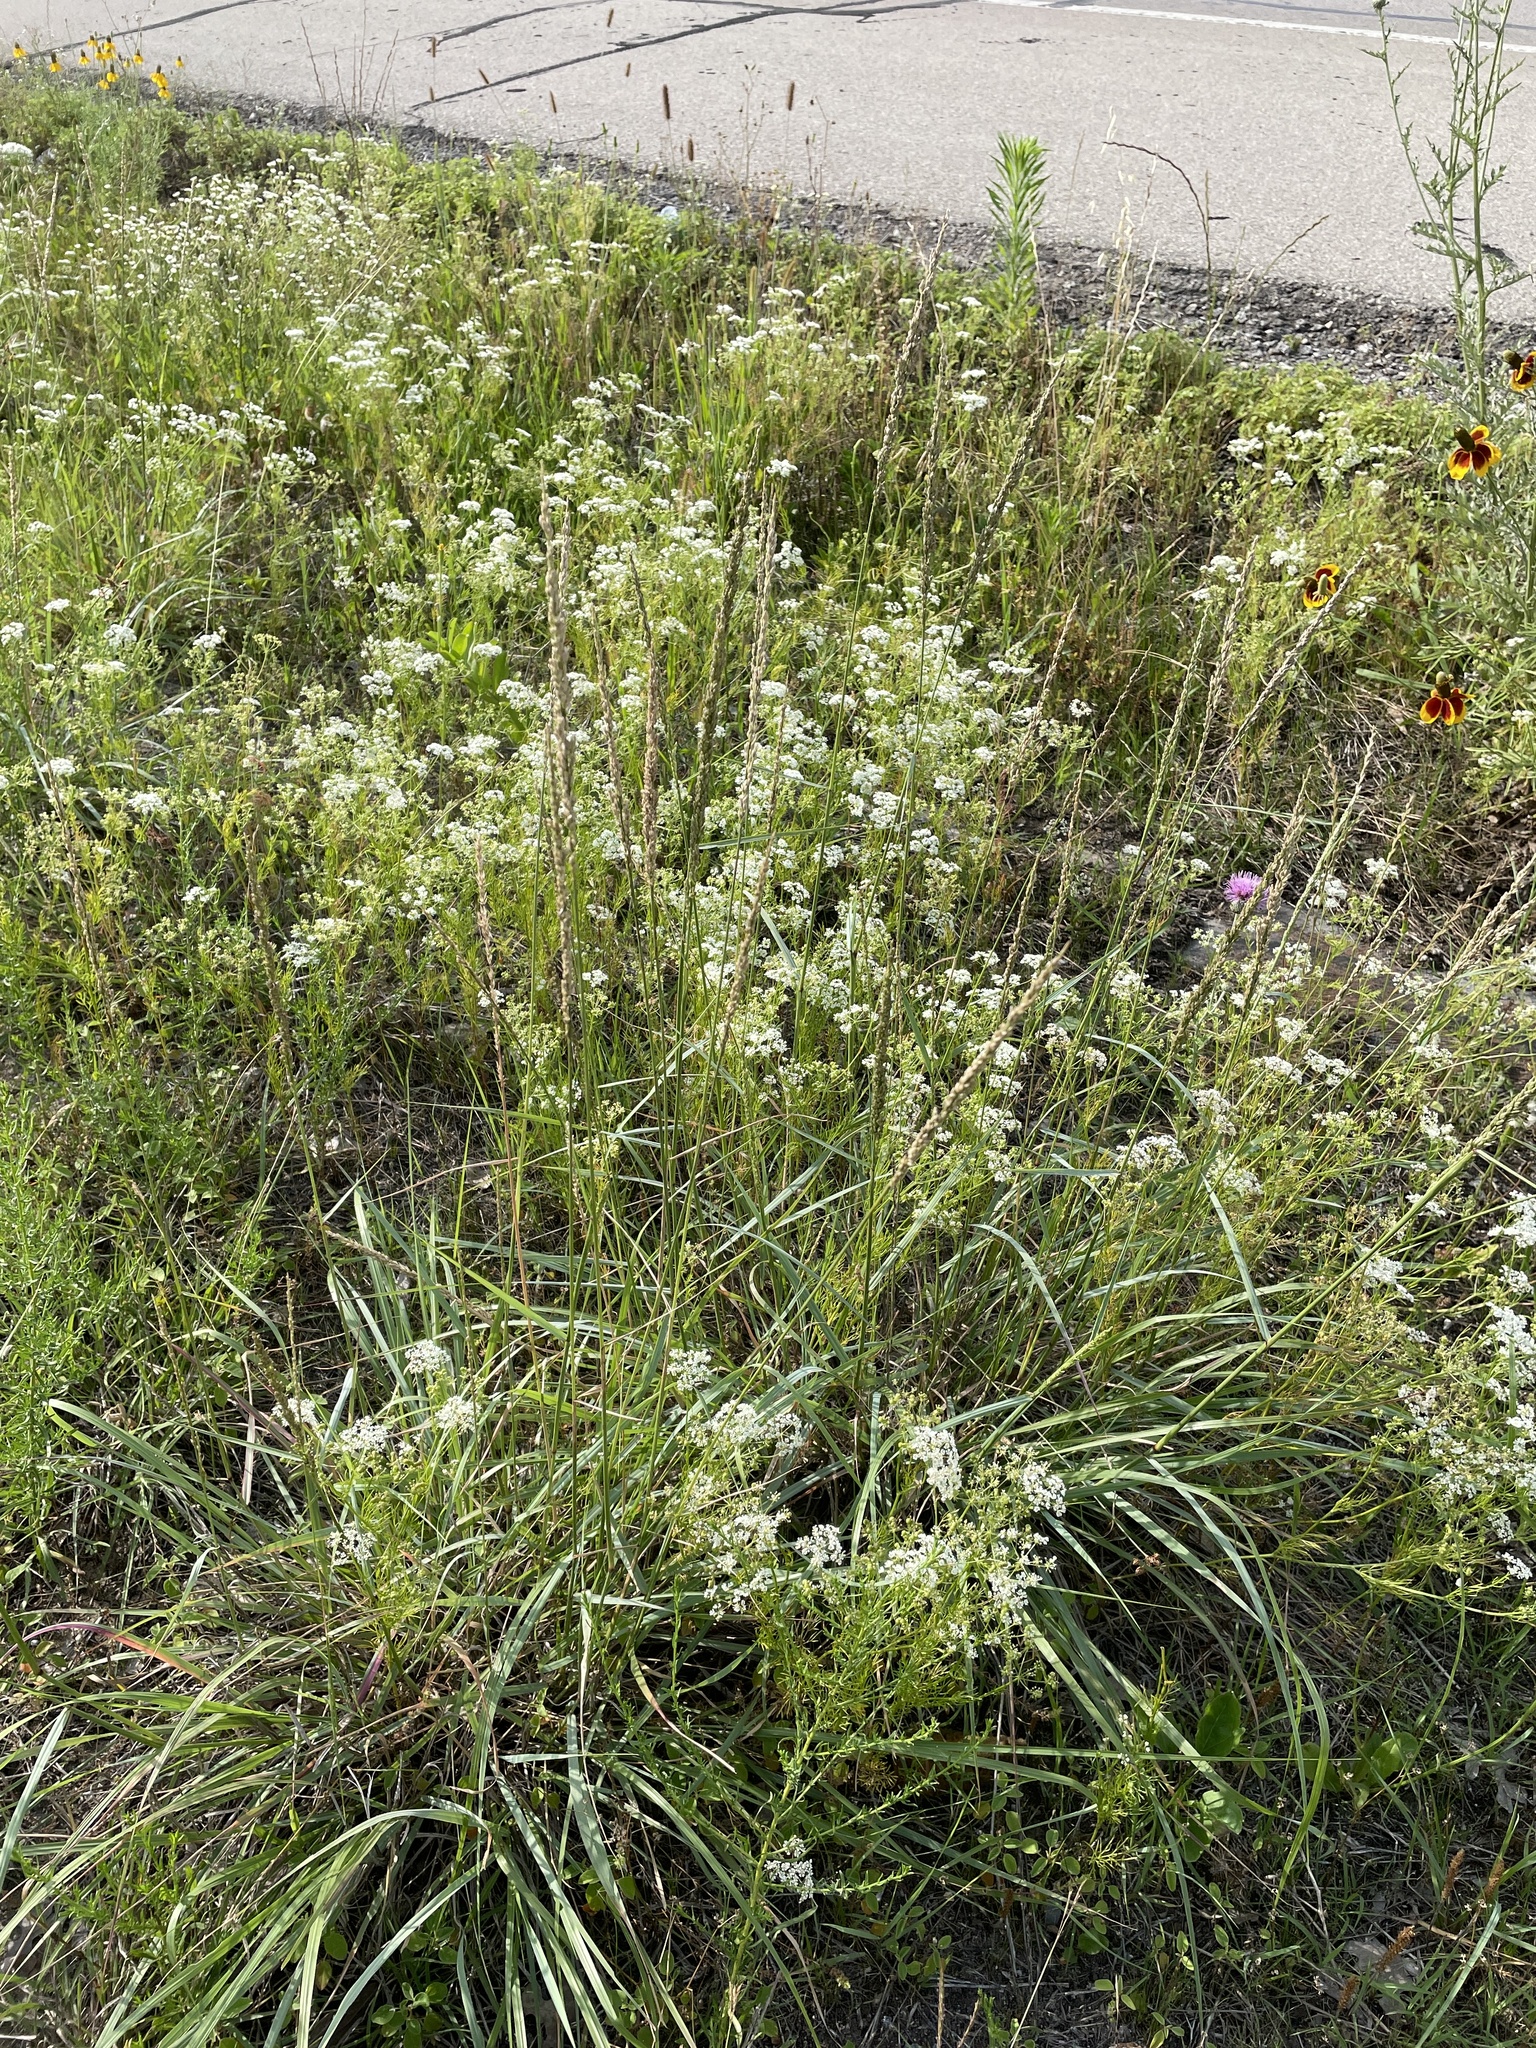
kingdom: Plantae
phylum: Tracheophyta
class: Liliopsida
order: Poales
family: Poaceae
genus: Tridens
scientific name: Tridens albescens
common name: White tridens
